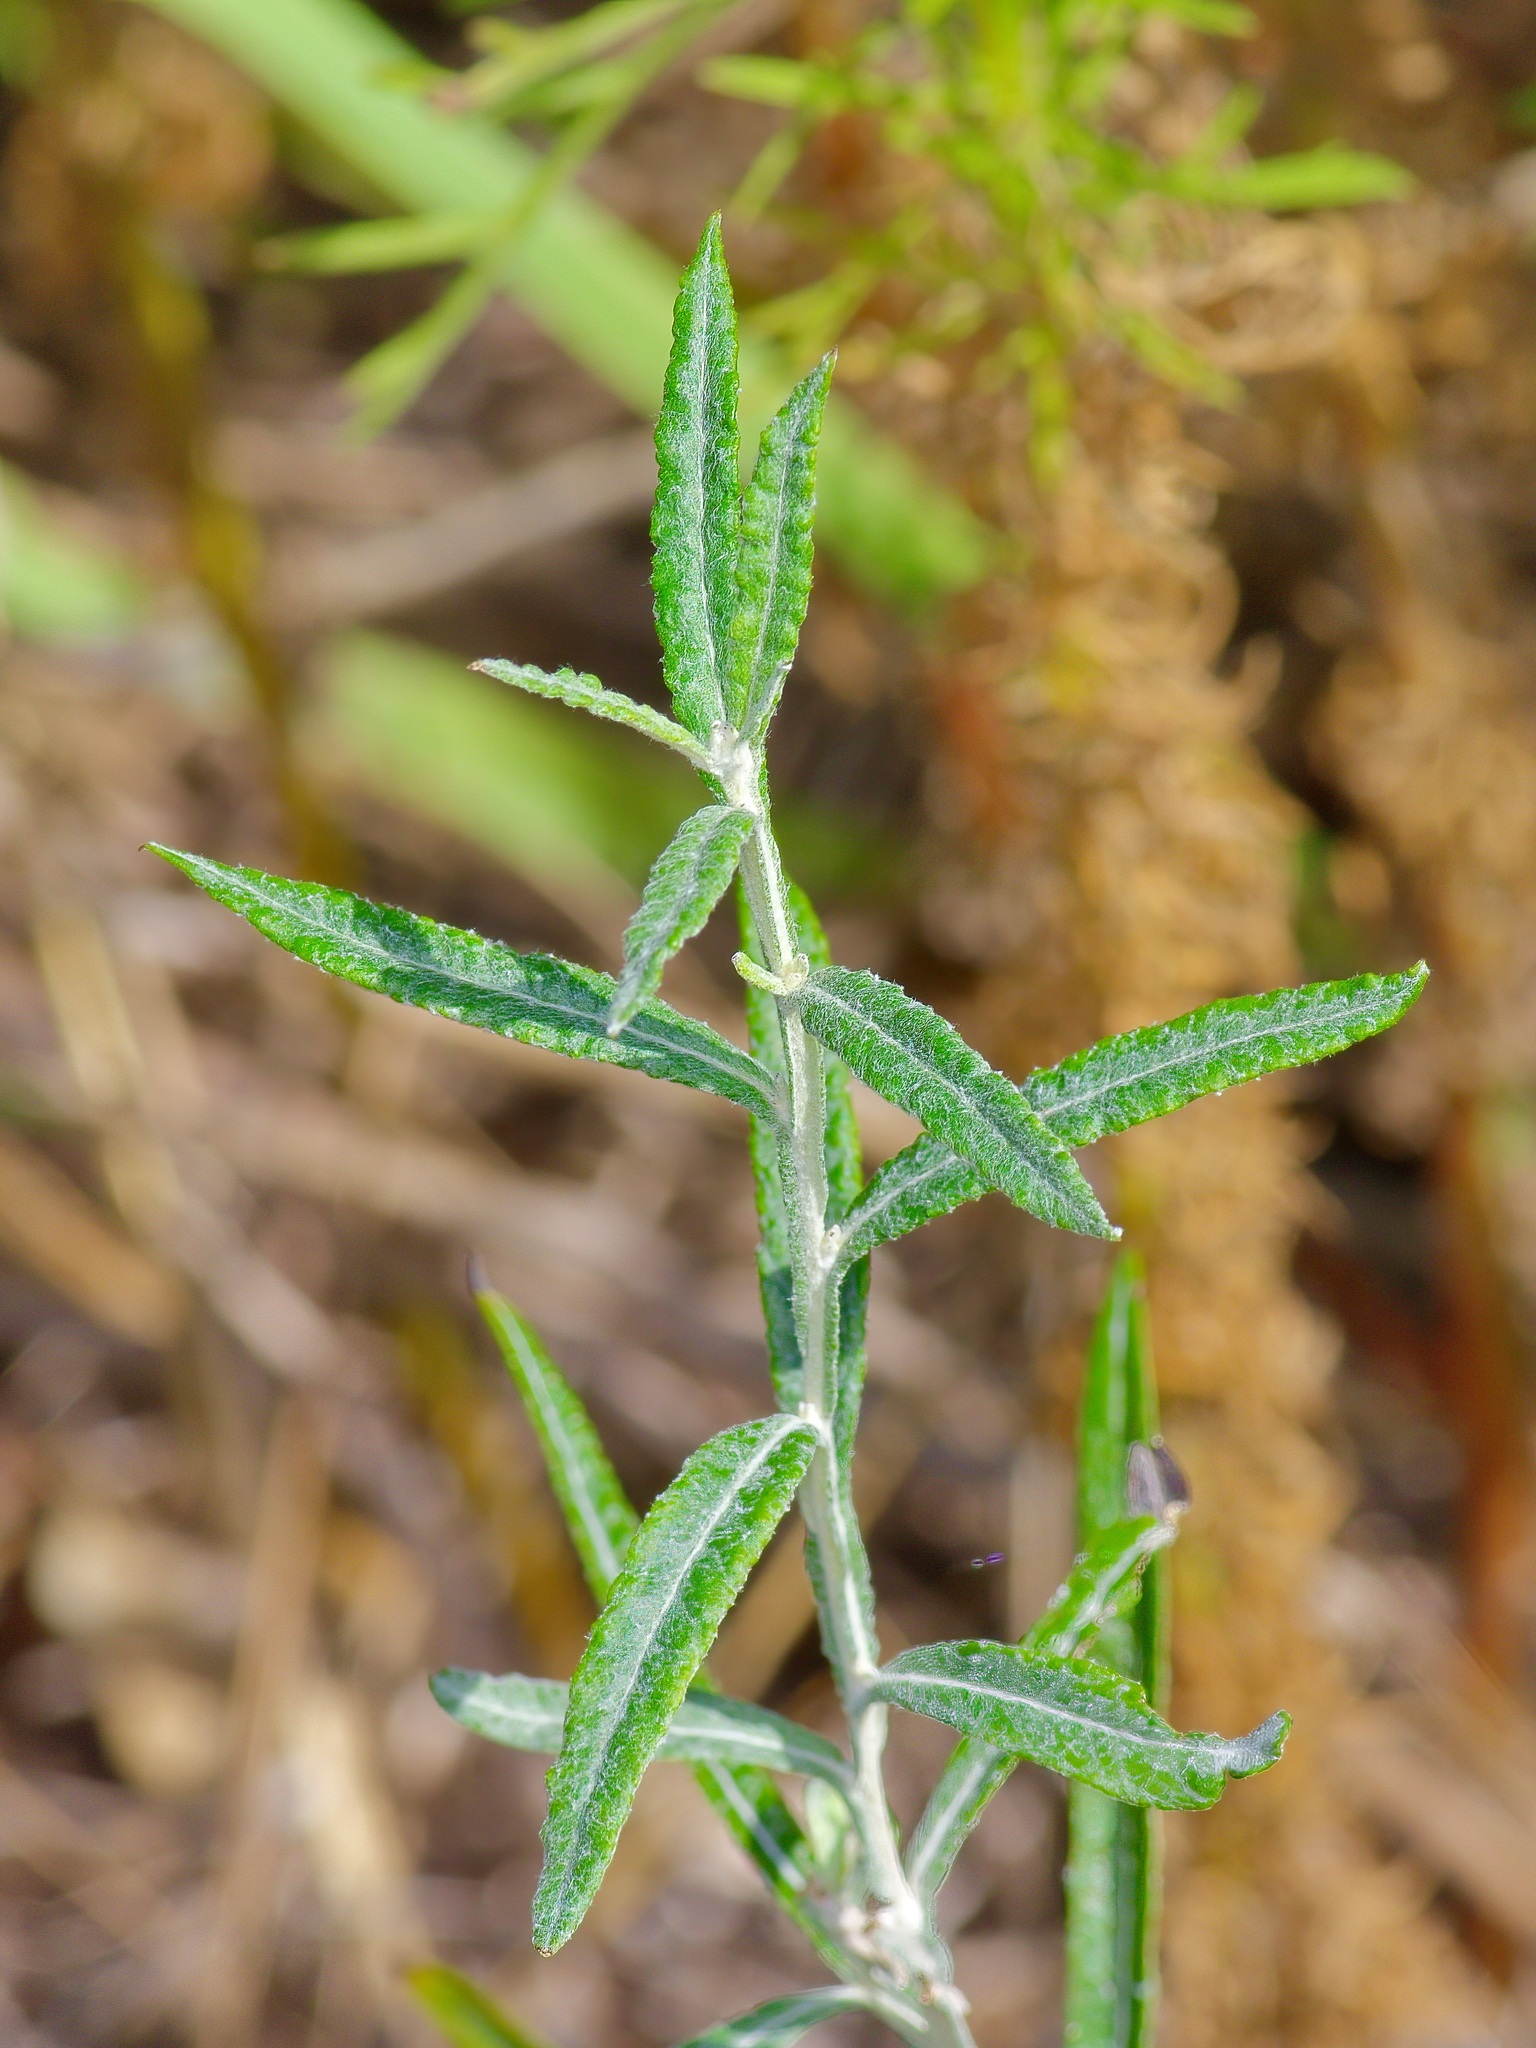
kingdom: Plantae
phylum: Tracheophyta
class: Magnoliopsida
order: Asterales
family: Asteraceae
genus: Pterocaulon
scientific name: Pterocaulon virgatum
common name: Wand blackroot
